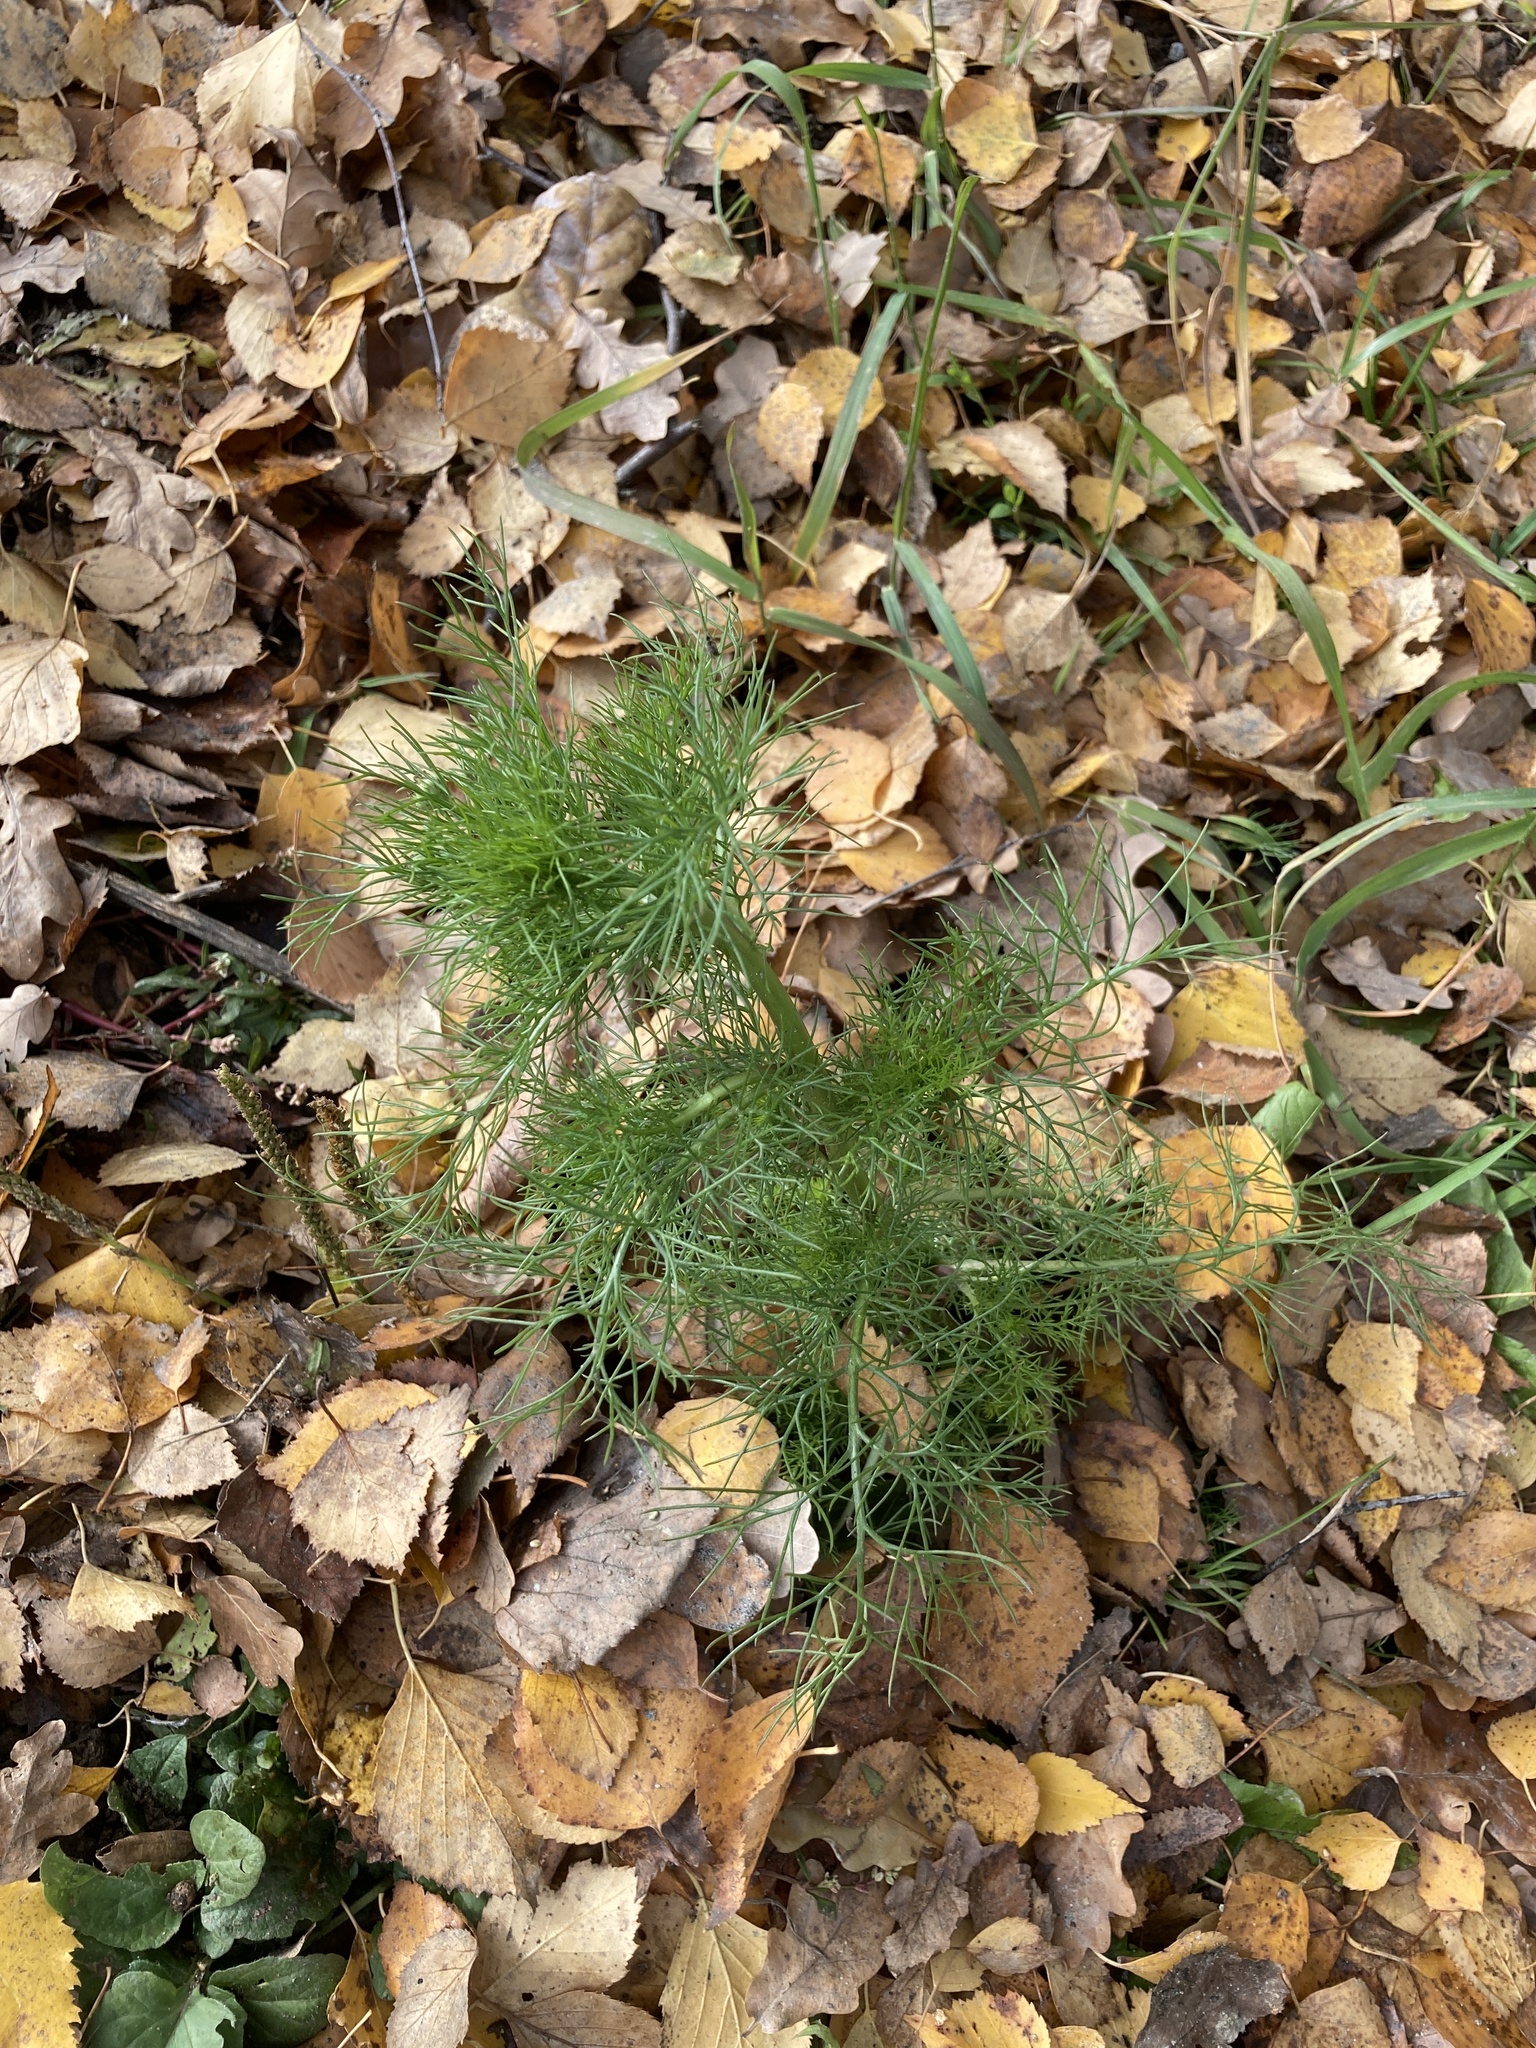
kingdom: Plantae
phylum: Tracheophyta
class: Magnoliopsida
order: Asterales
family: Asteraceae
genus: Tripleurospermum
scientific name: Tripleurospermum inodorum
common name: Scentless mayweed
